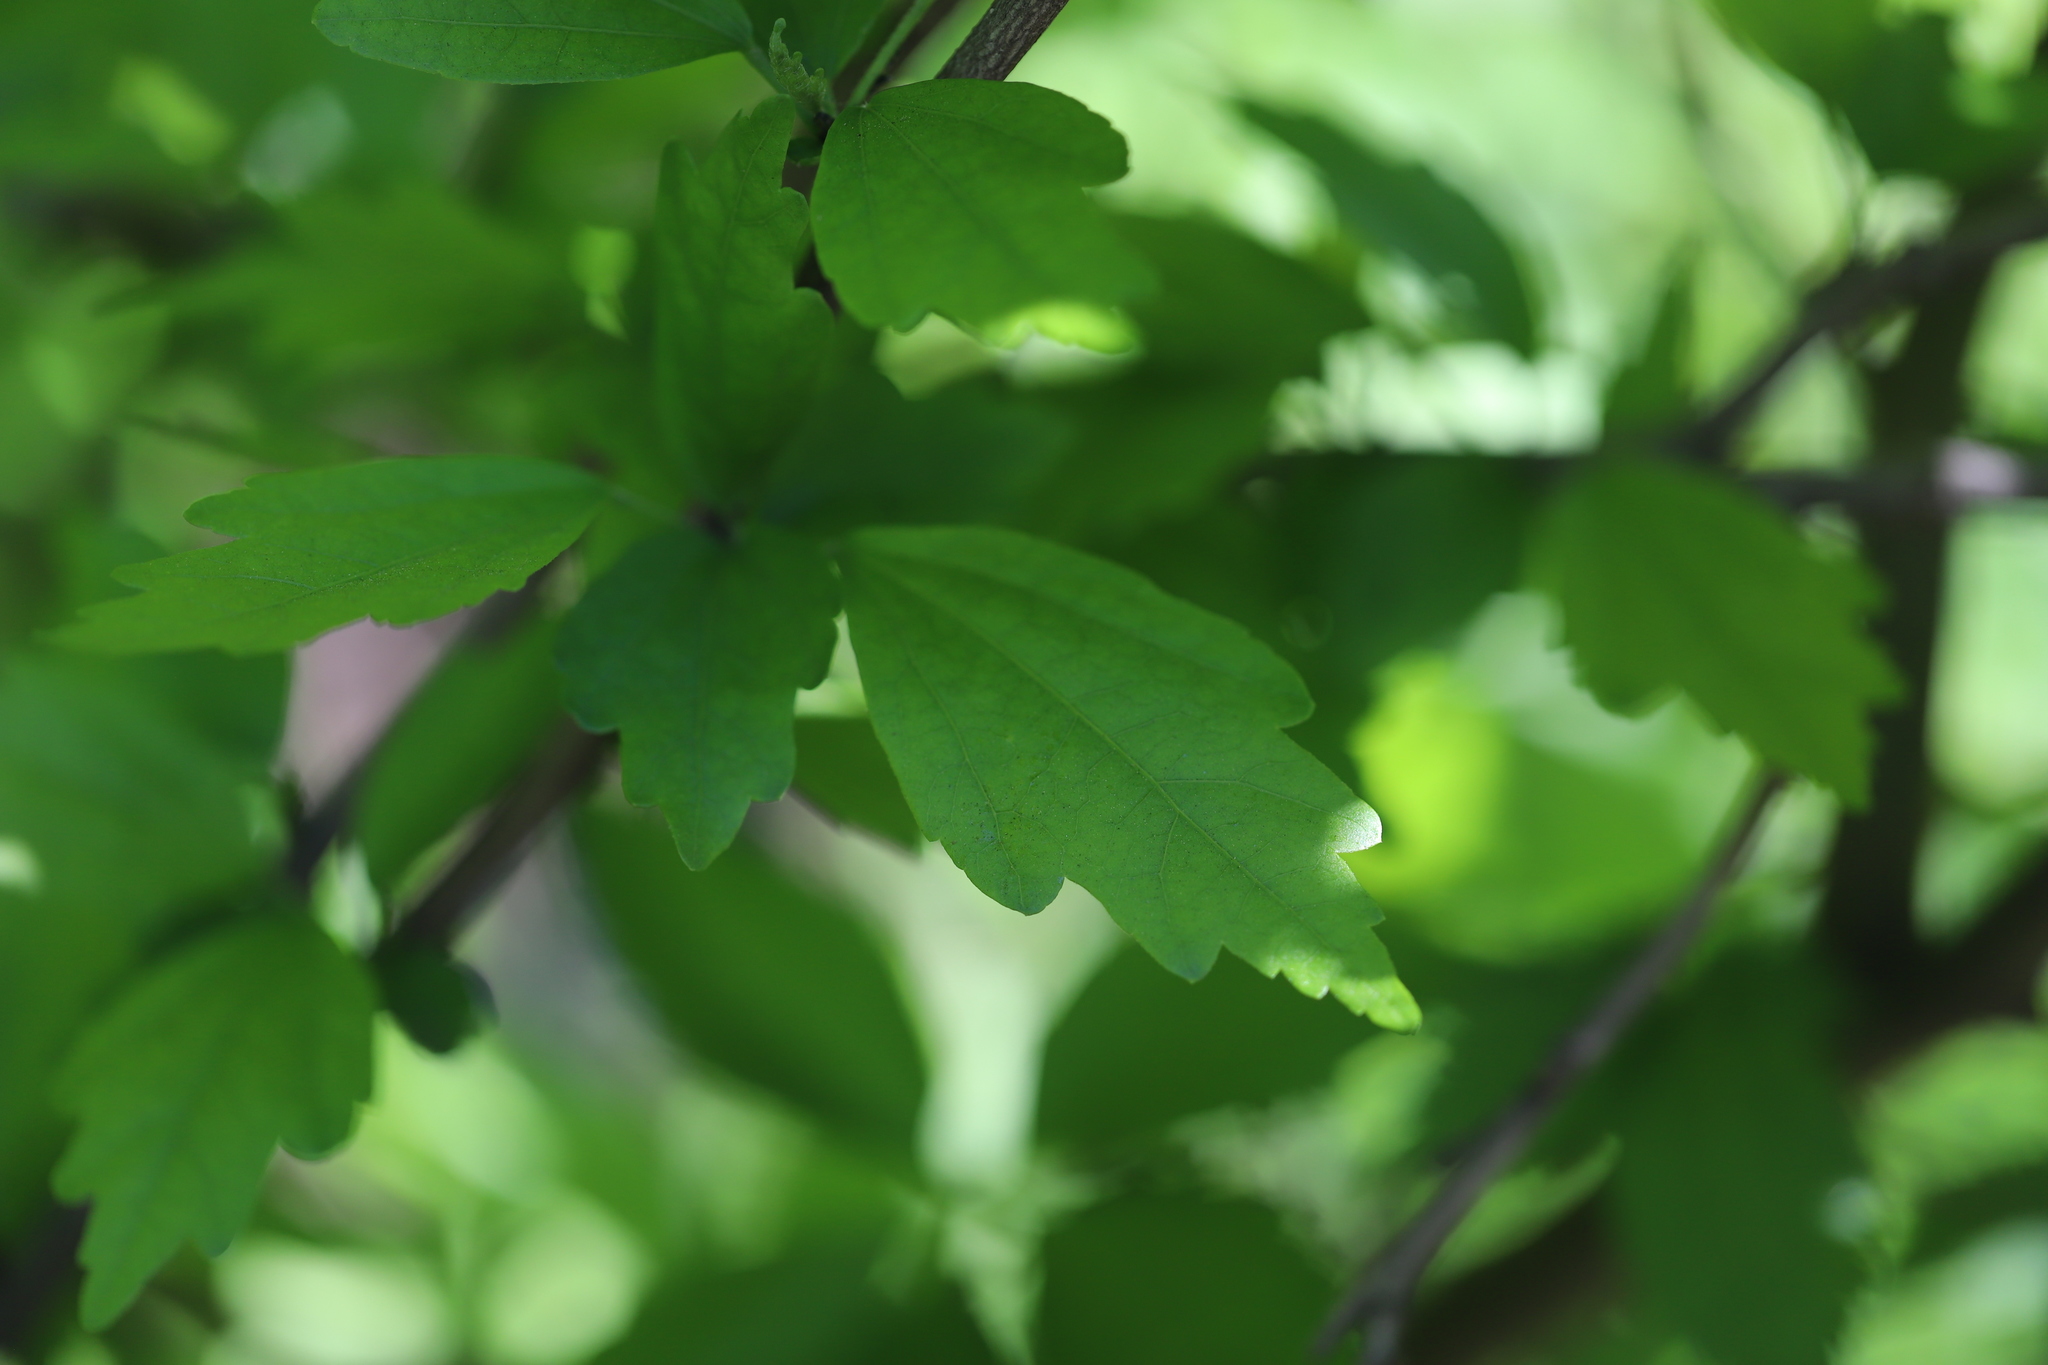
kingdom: Plantae
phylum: Tracheophyta
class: Magnoliopsida
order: Malvales
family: Malvaceae
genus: Hibiscus
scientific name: Hibiscus syriacus
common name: Syrian ketmia
